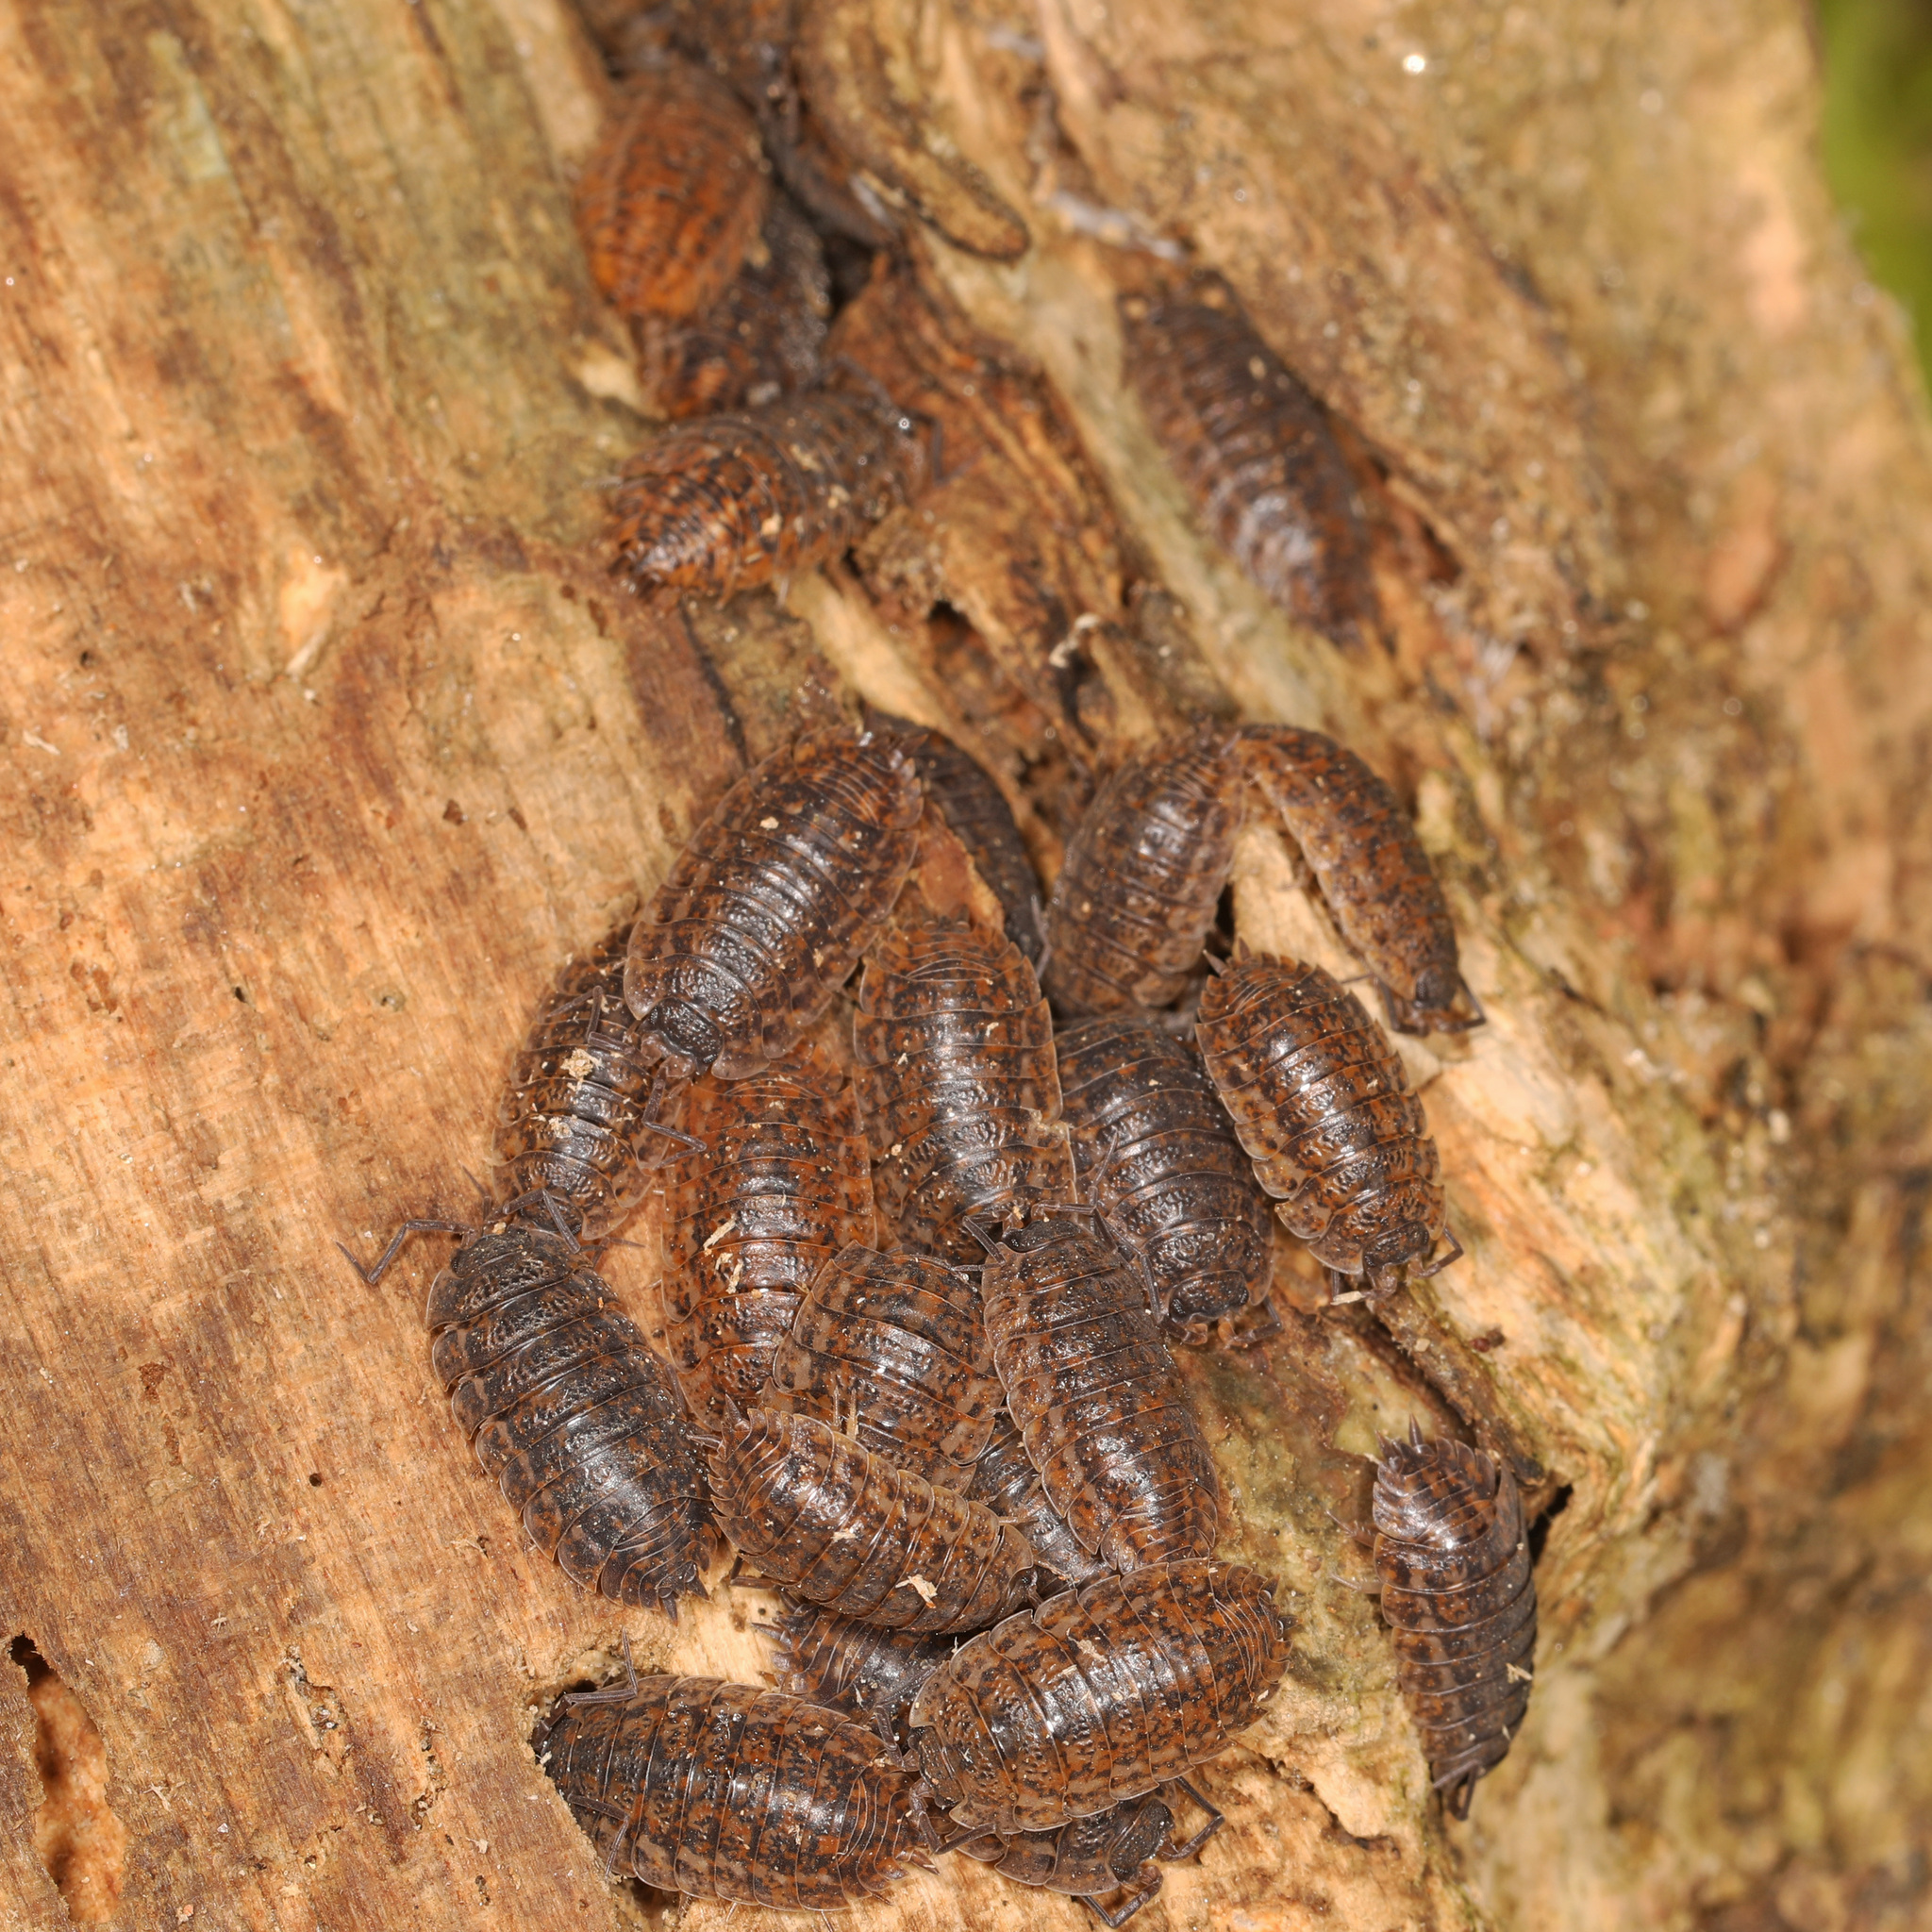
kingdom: Animalia
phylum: Arthropoda
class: Malacostraca
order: Isopoda
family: Trachelipodidae
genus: Trachelipus
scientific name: Trachelipus rathkii
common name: Isopod
